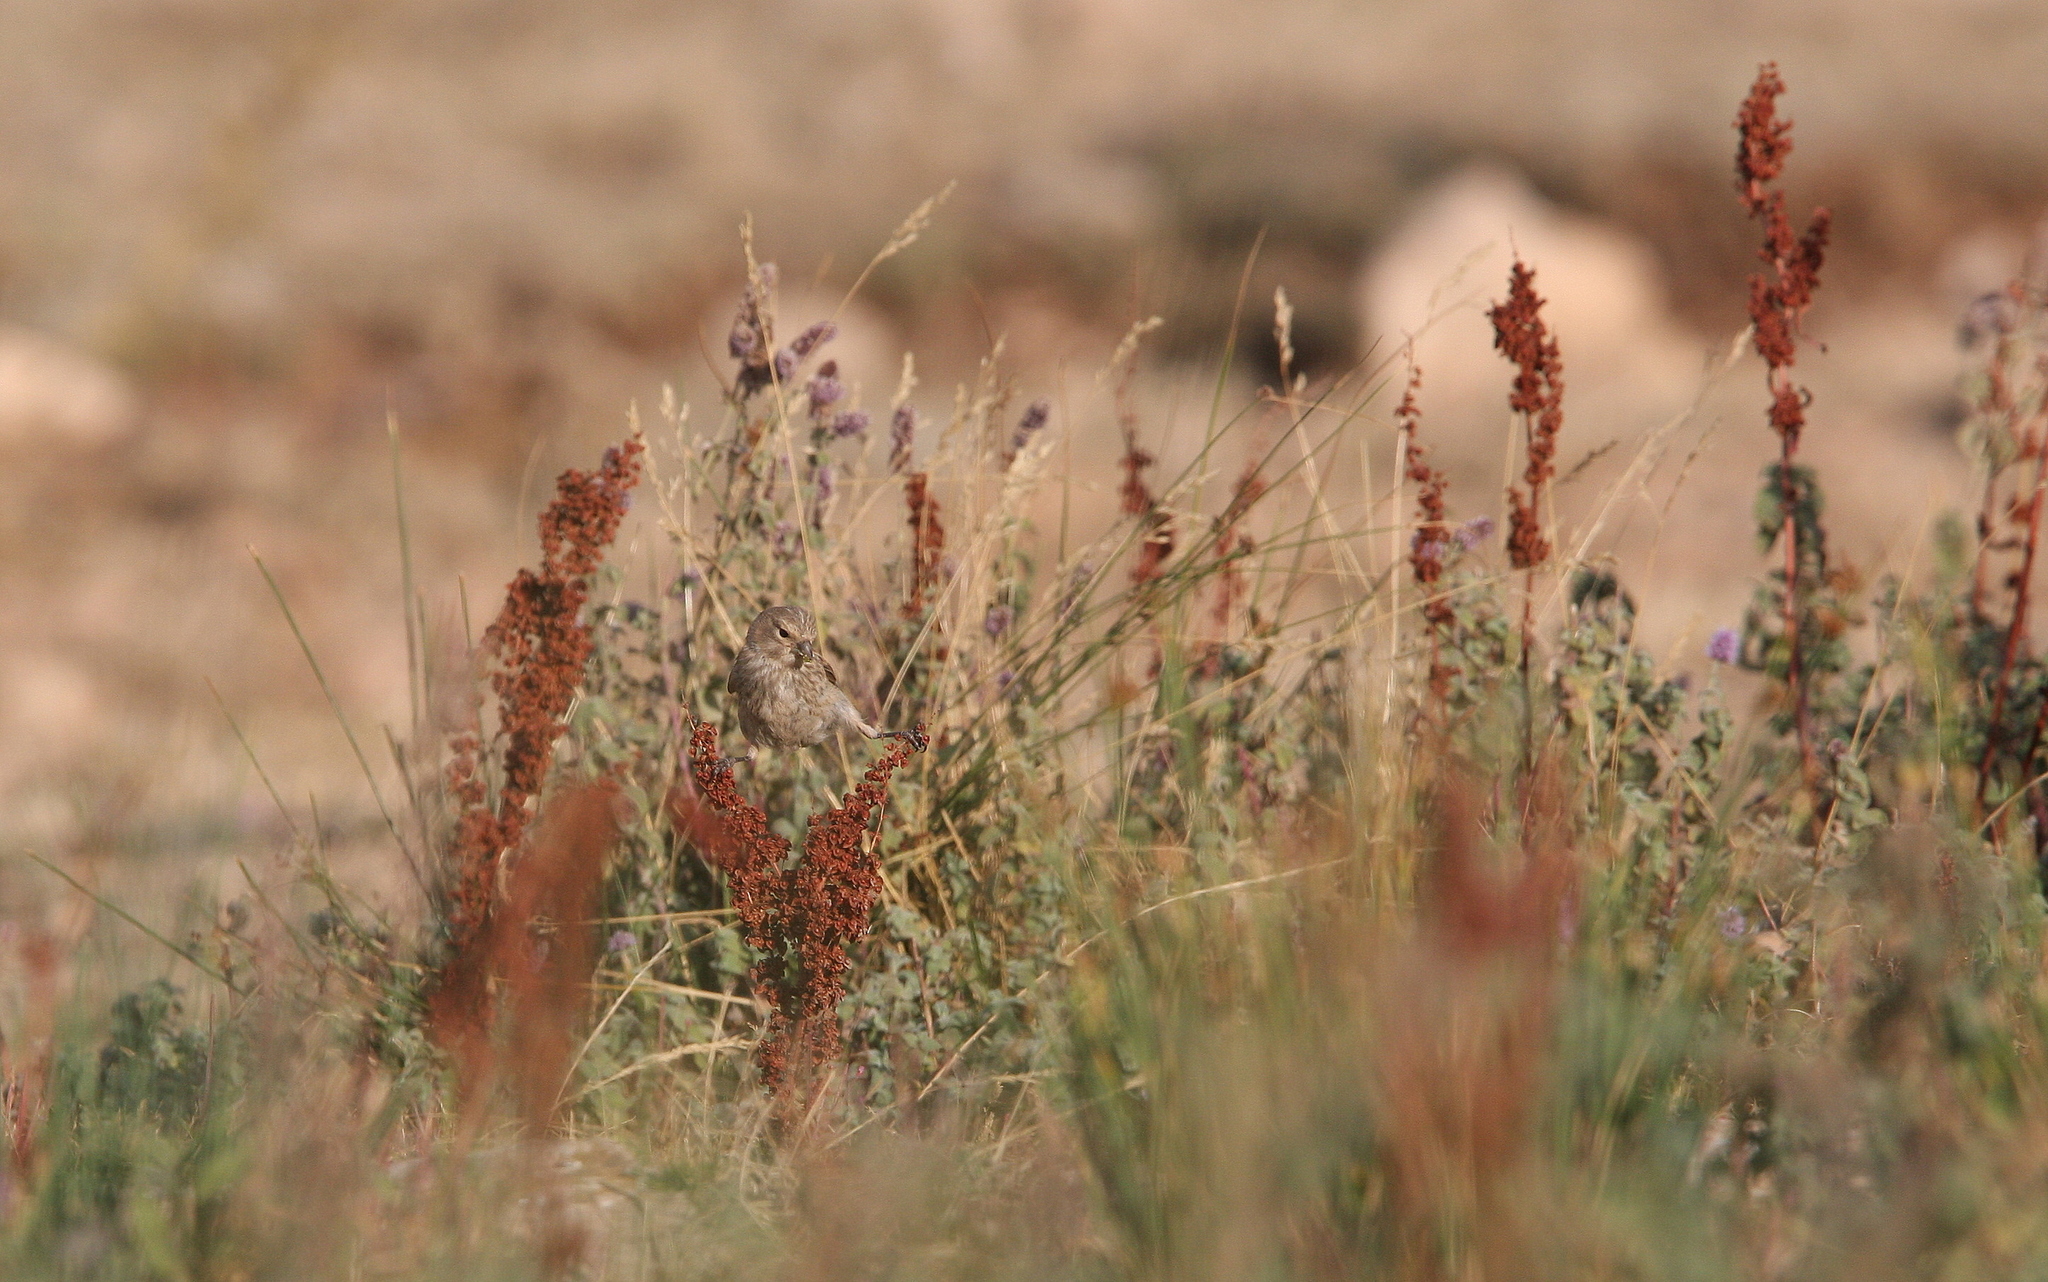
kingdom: Animalia
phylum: Chordata
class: Aves
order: Passeriformes
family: Fringillidae
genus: Linaria
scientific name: Linaria cannabina
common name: Common linnet
